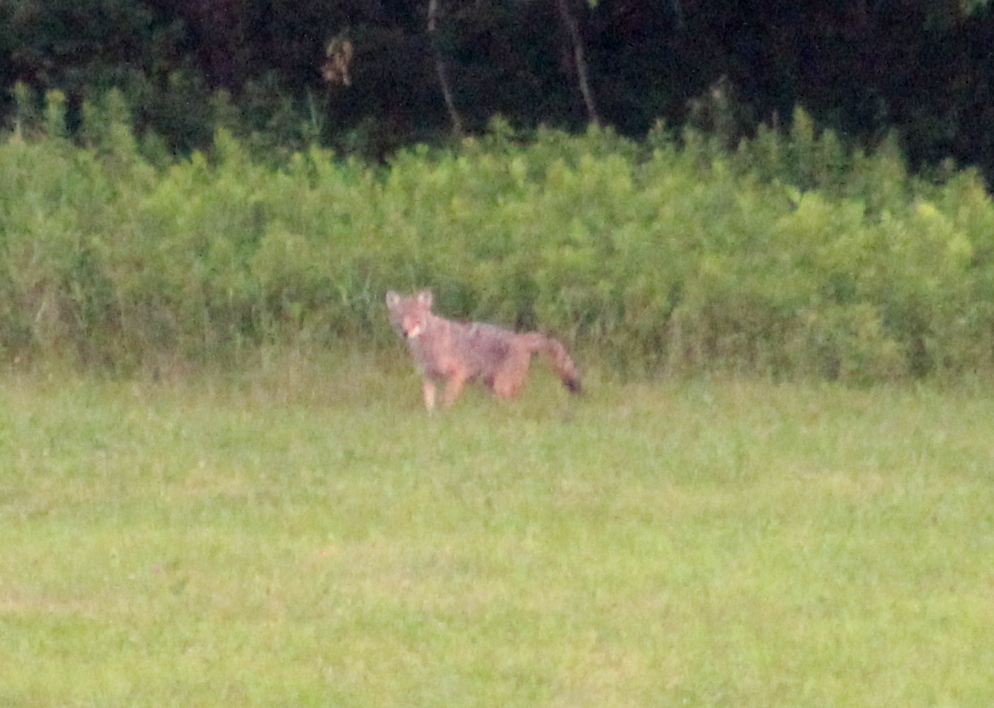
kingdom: Animalia
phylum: Chordata
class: Mammalia
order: Carnivora
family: Canidae
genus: Canis
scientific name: Canis latrans
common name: Coyote
